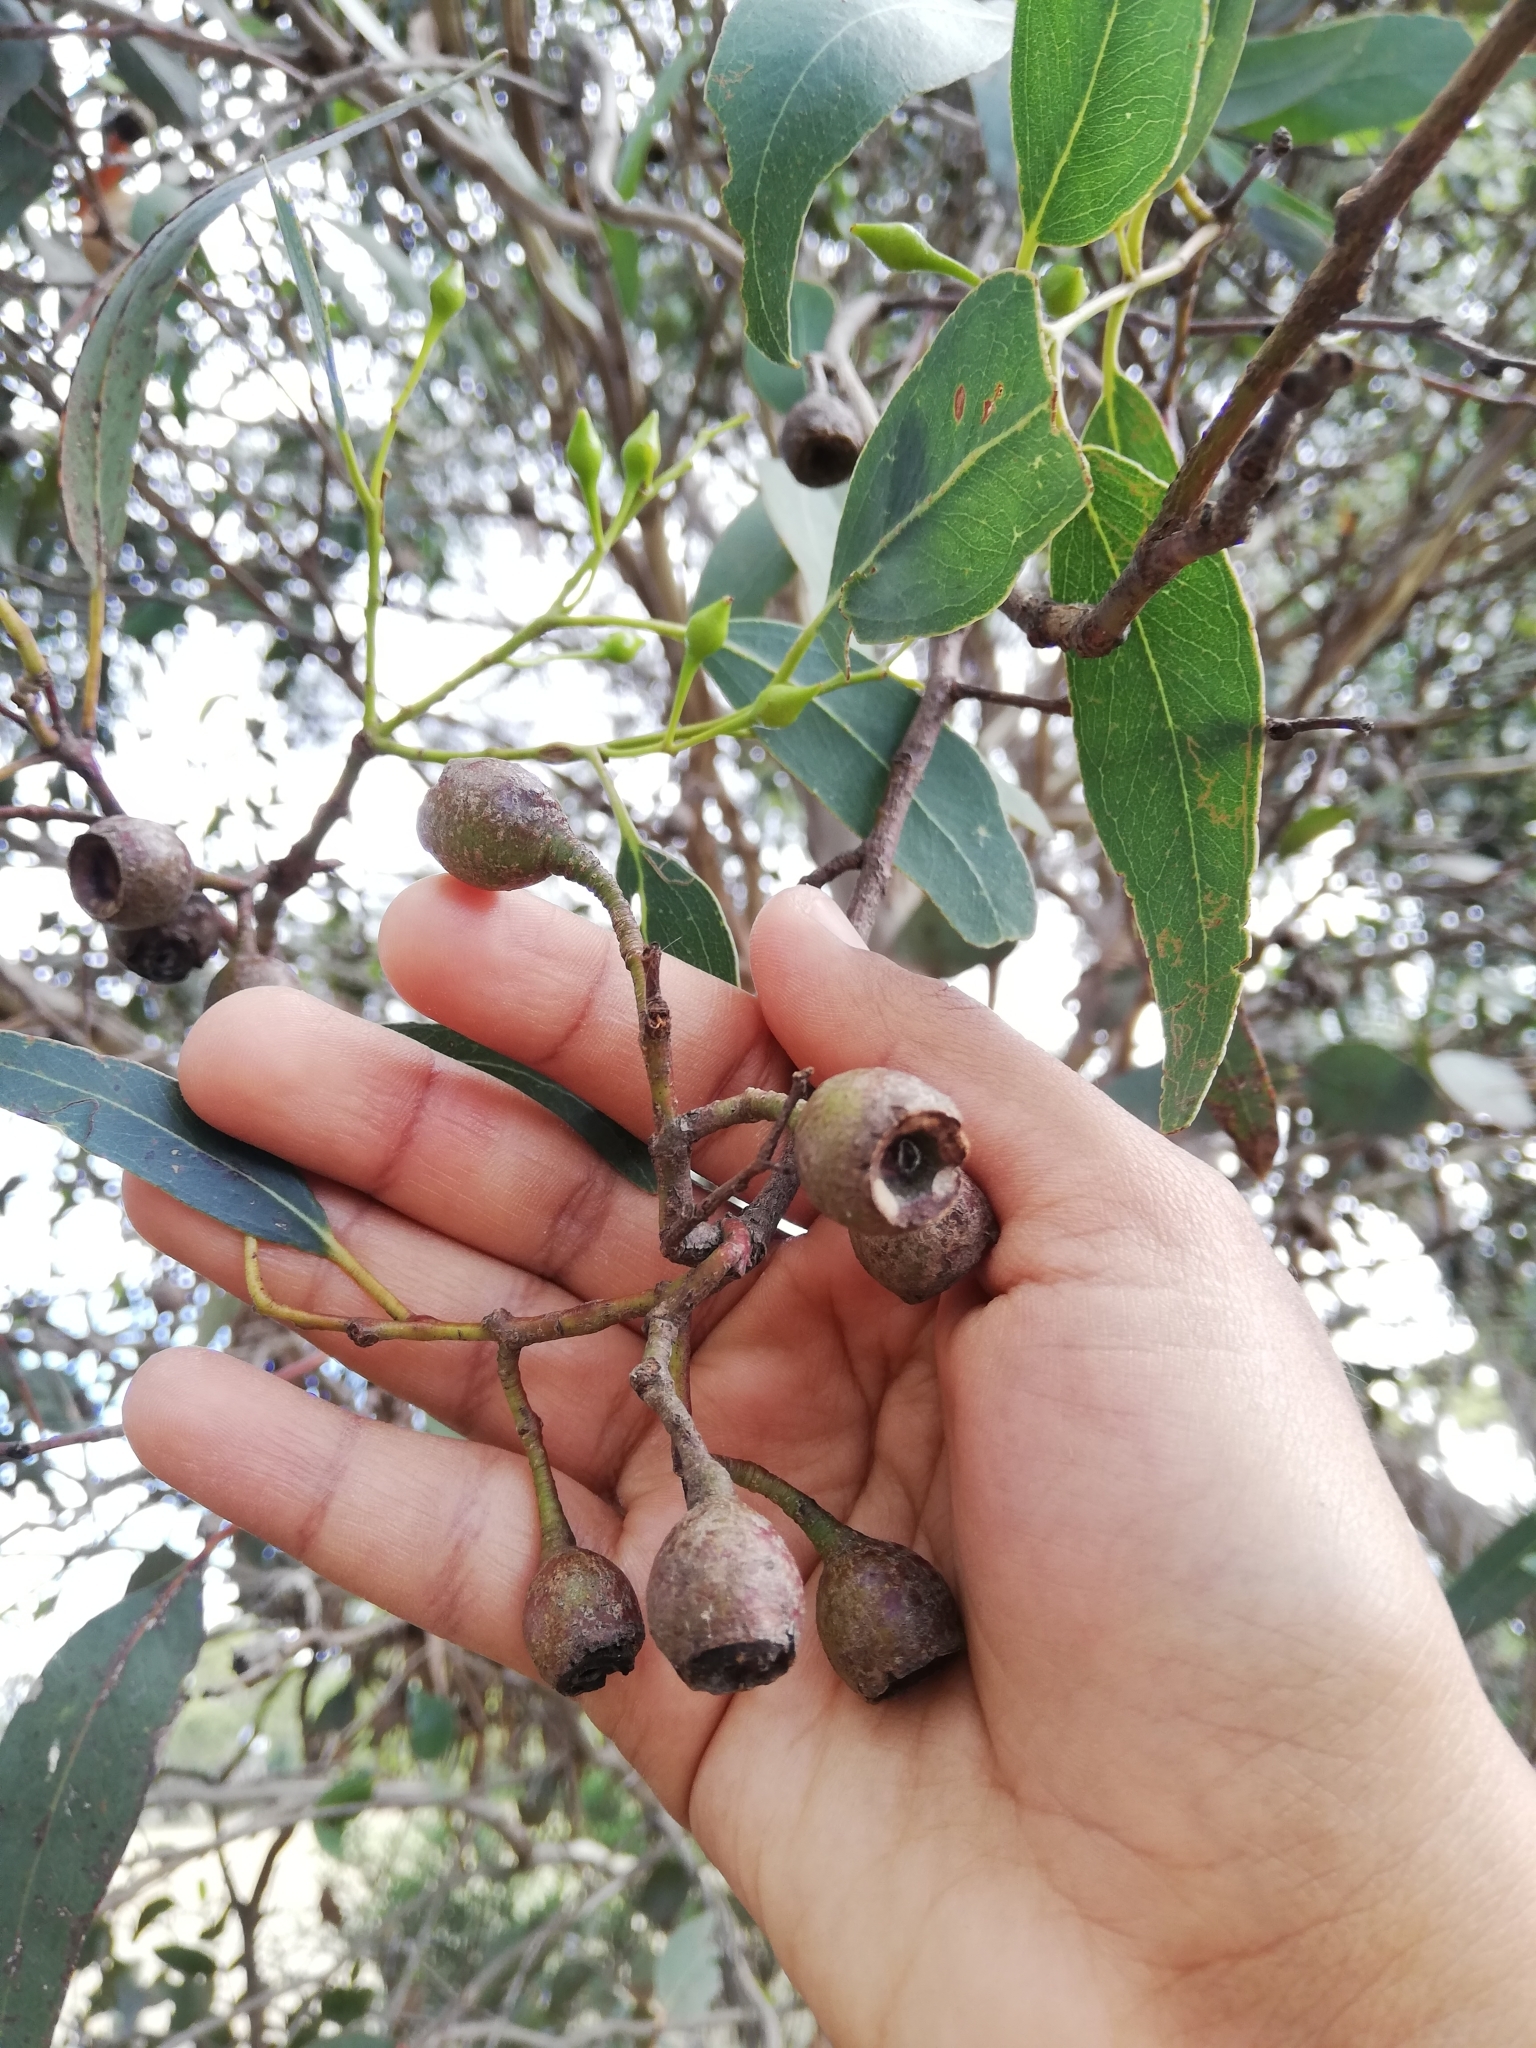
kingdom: Plantae
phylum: Tracheophyta
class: Magnoliopsida
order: Myrtales
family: Myrtaceae
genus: Eucalyptus
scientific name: Eucalyptus leucoxylon
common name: Blue gum
